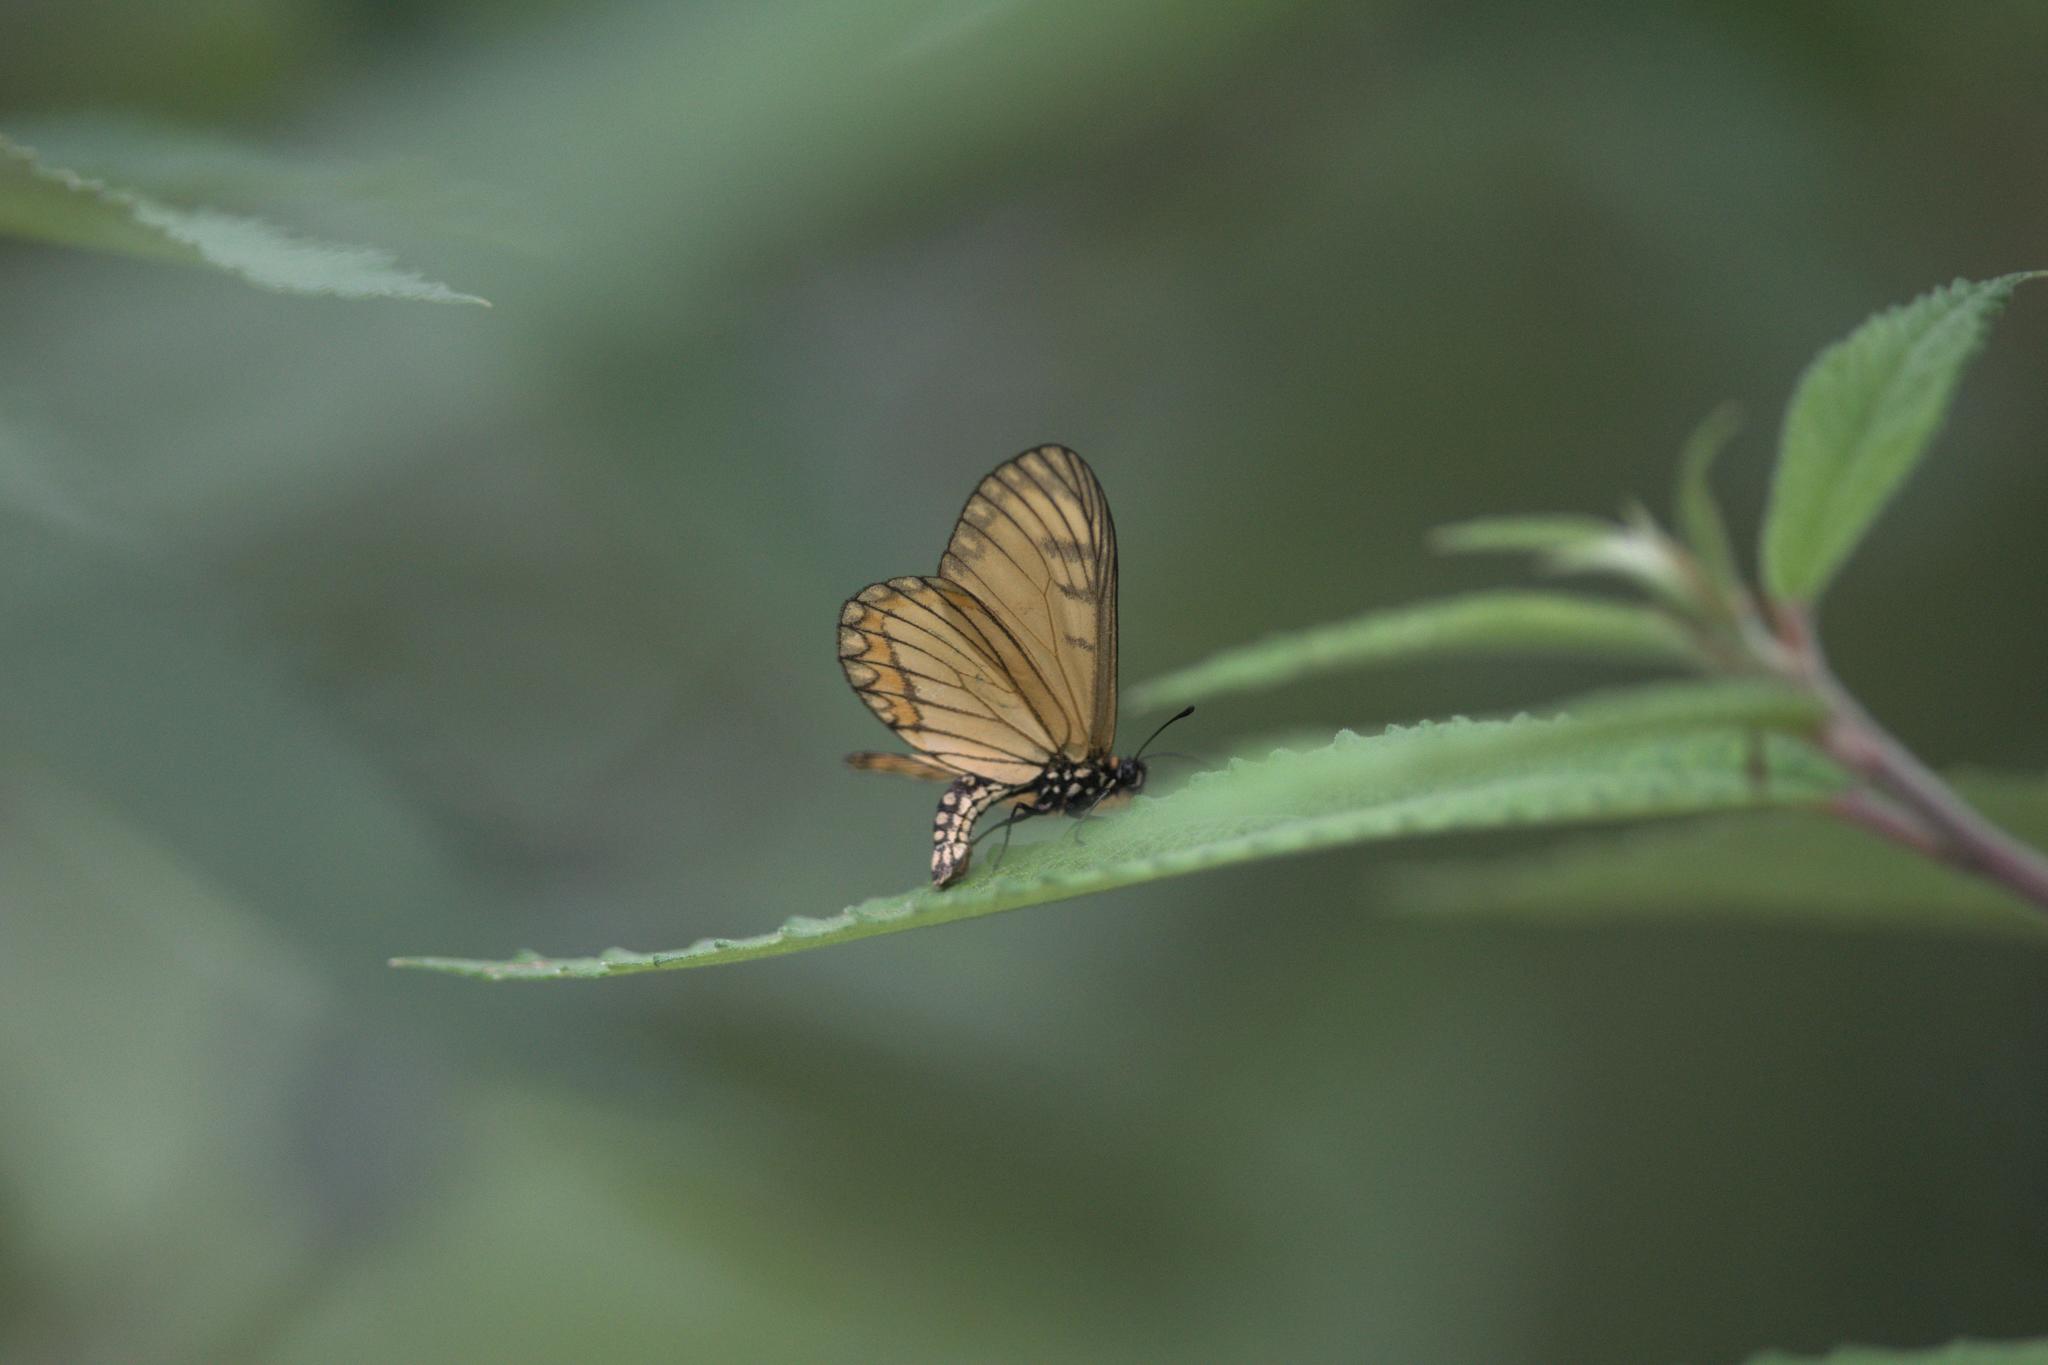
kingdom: Animalia
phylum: Arthropoda
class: Insecta
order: Lepidoptera
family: Nymphalidae
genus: Acraea
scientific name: Acraea Telchinia issoria
